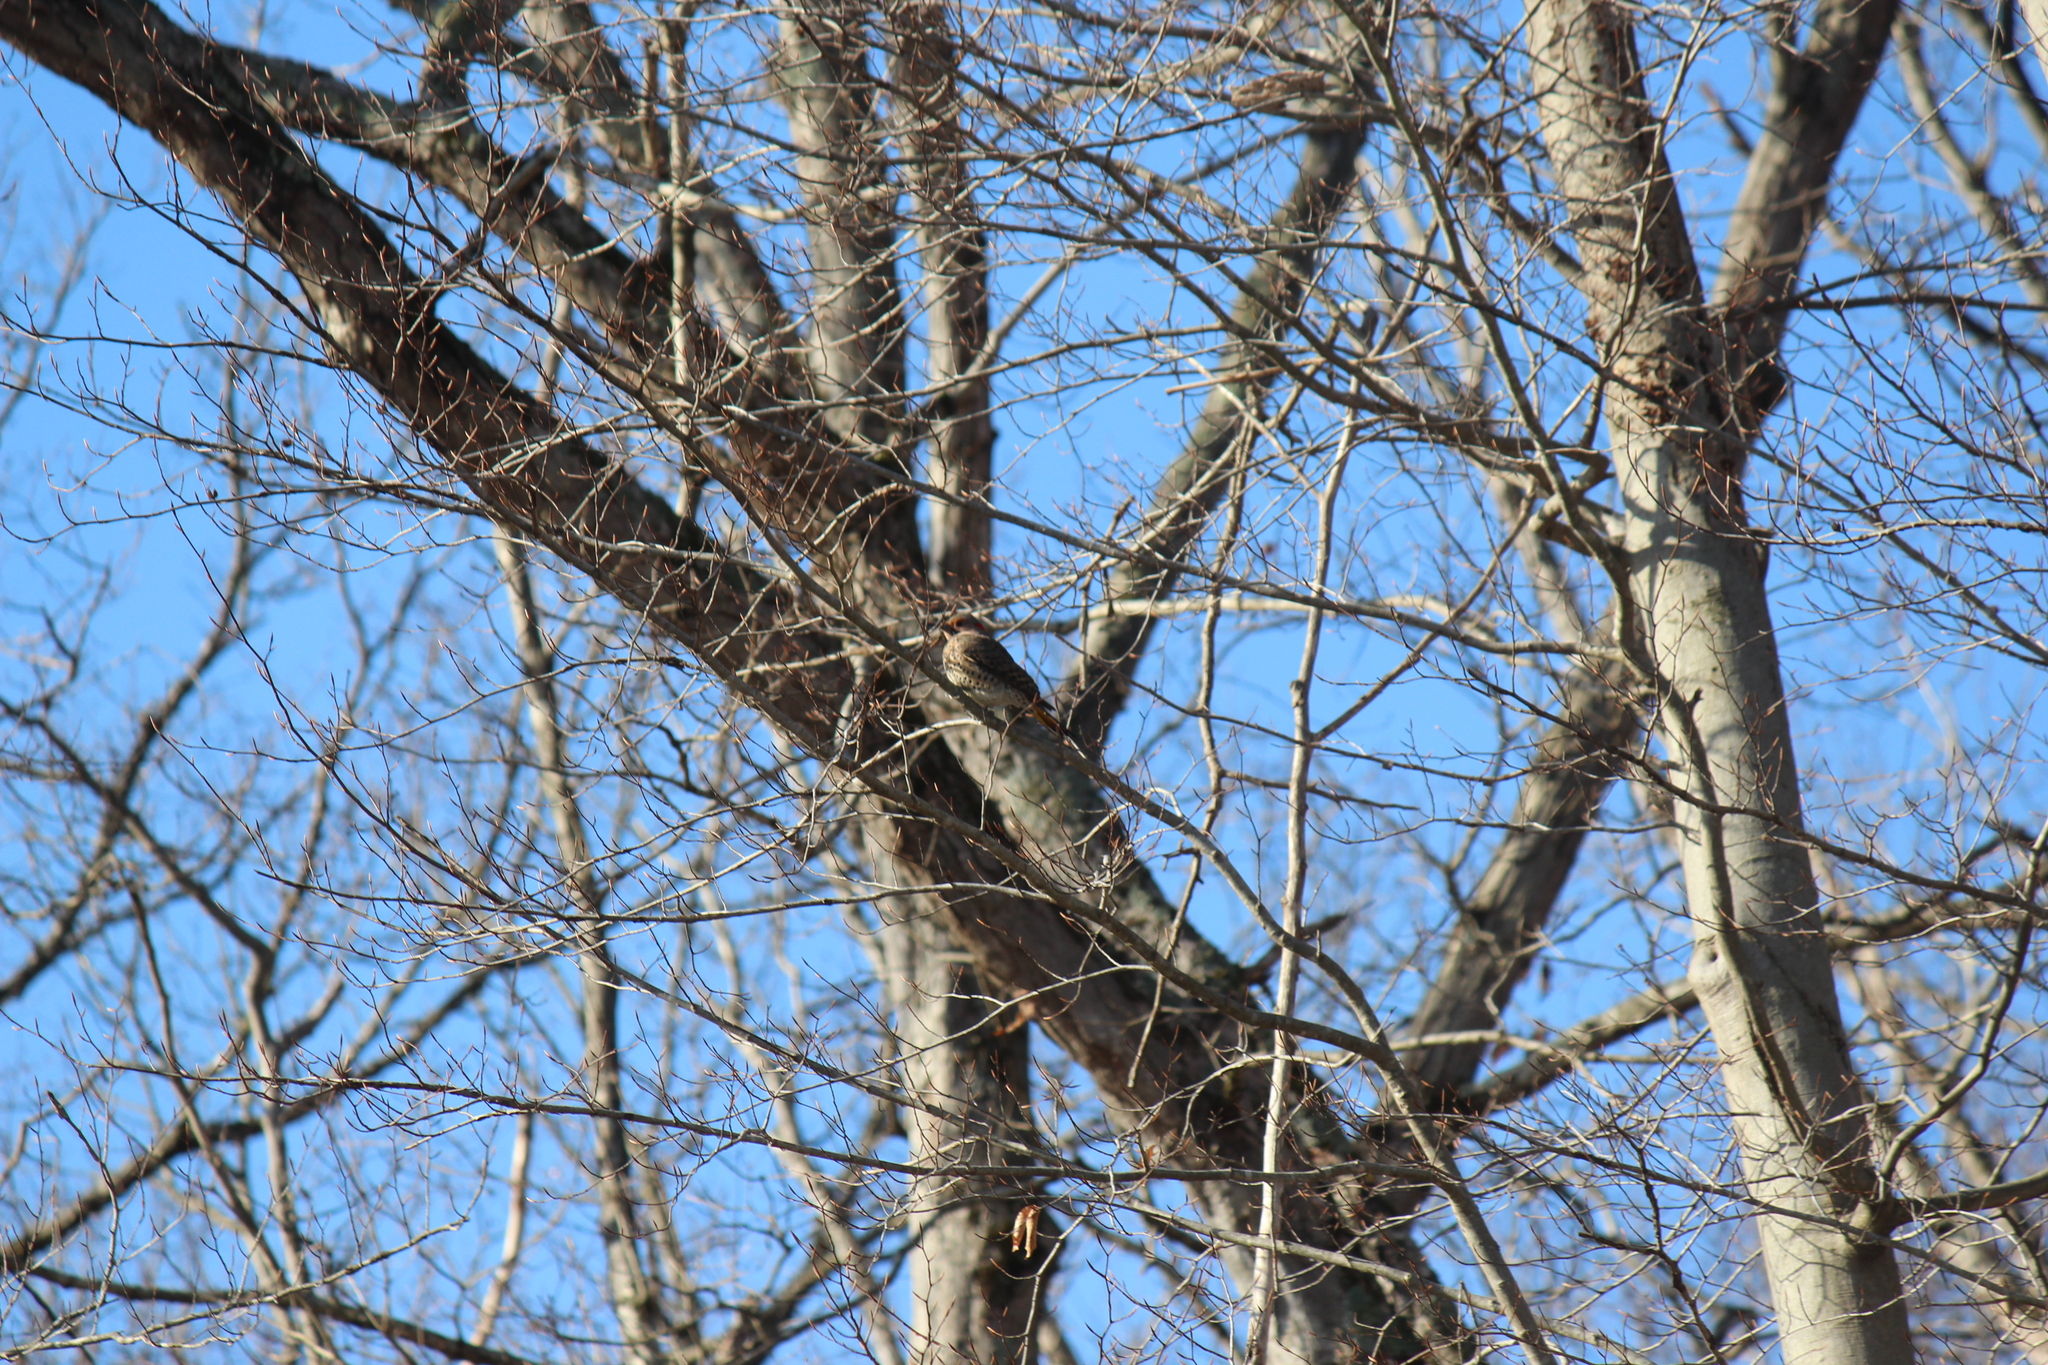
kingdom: Animalia
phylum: Chordata
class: Aves
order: Piciformes
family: Picidae
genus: Colaptes
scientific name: Colaptes auratus
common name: Northern flicker
